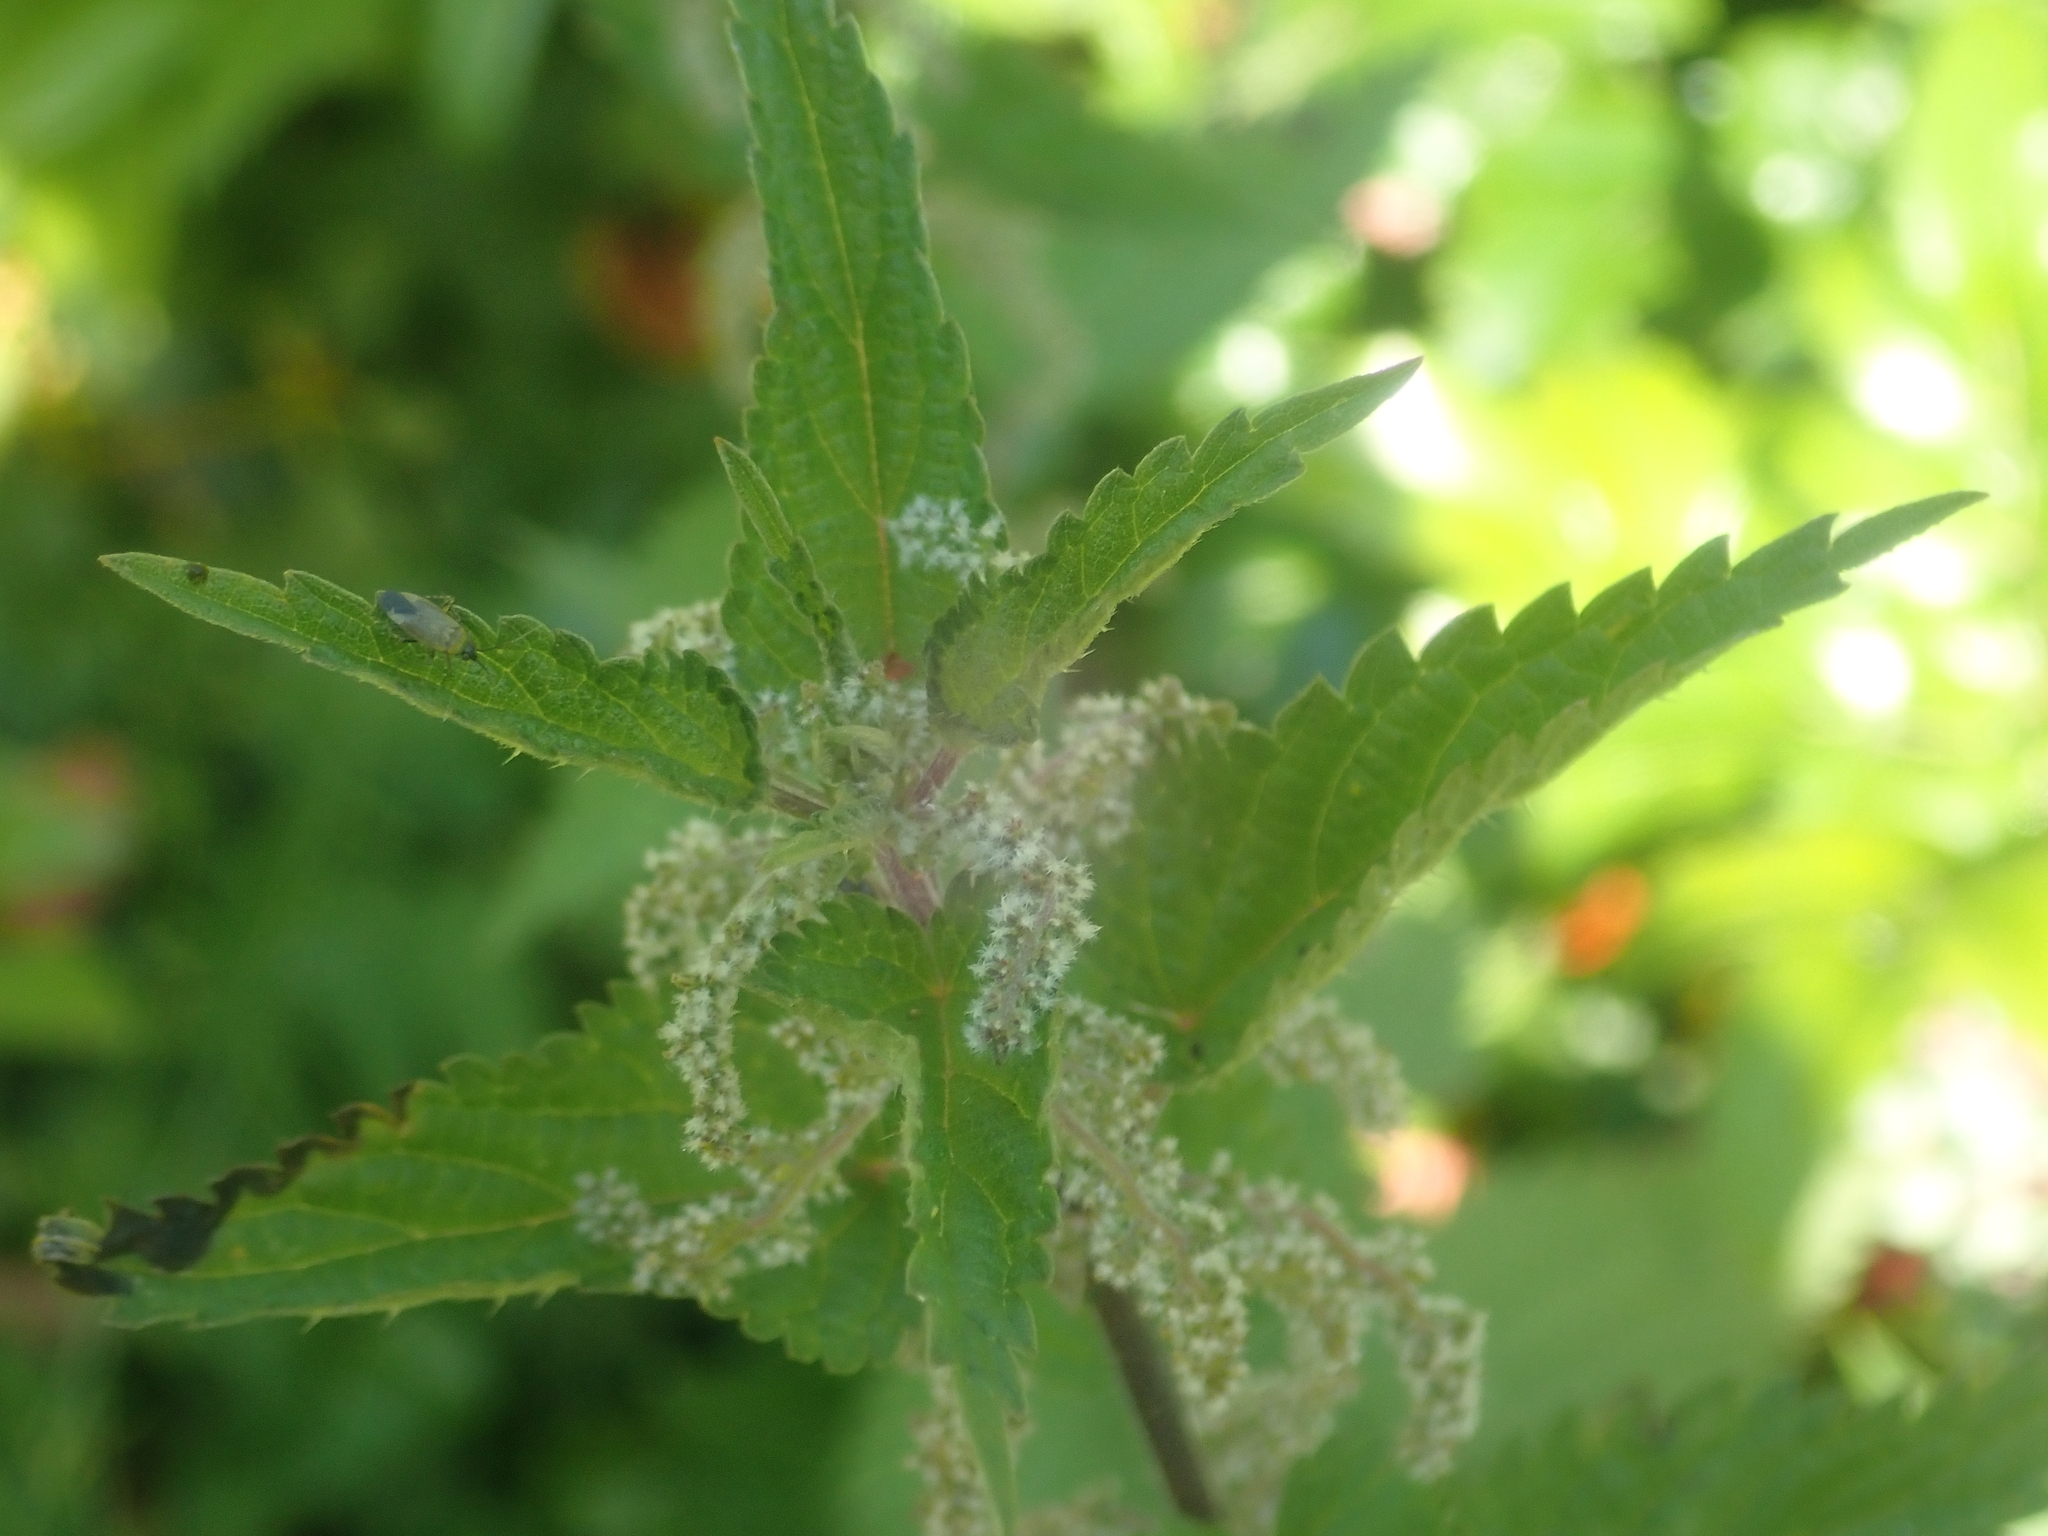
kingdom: Plantae
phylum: Tracheophyta
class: Magnoliopsida
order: Rosales
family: Urticaceae
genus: Urtica
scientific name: Urtica dioica
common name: Common nettle
